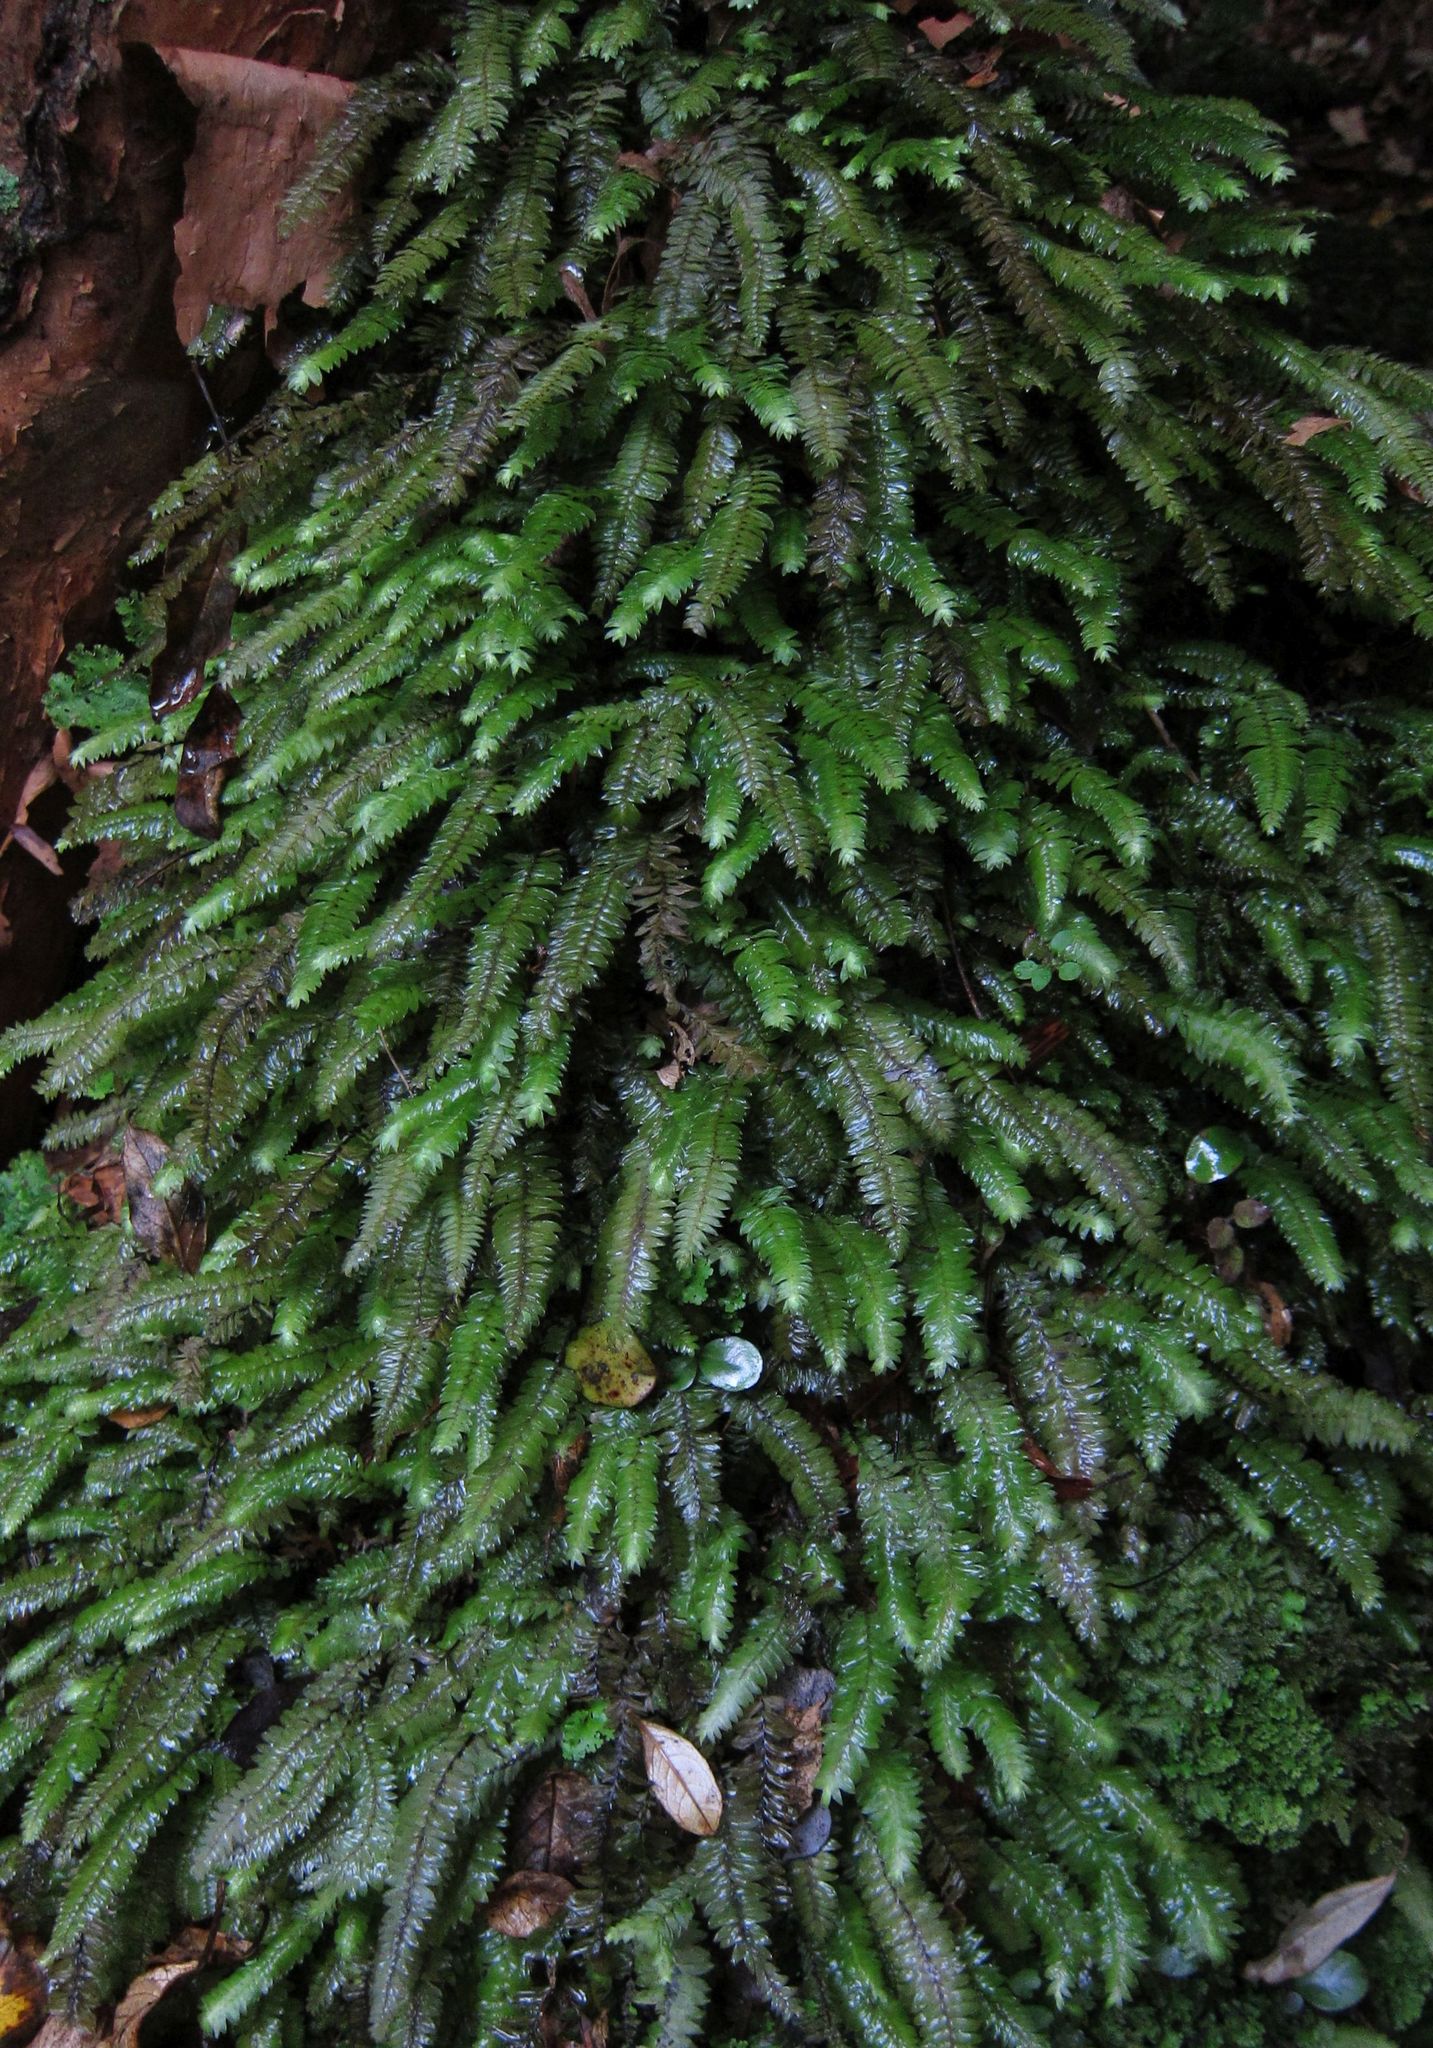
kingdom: Plantae
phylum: Bryophyta
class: Bryopsida
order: Hypopterygiales
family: Hypopterygiaceae
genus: Cyathophorum
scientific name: Cyathophorum bulbosum
